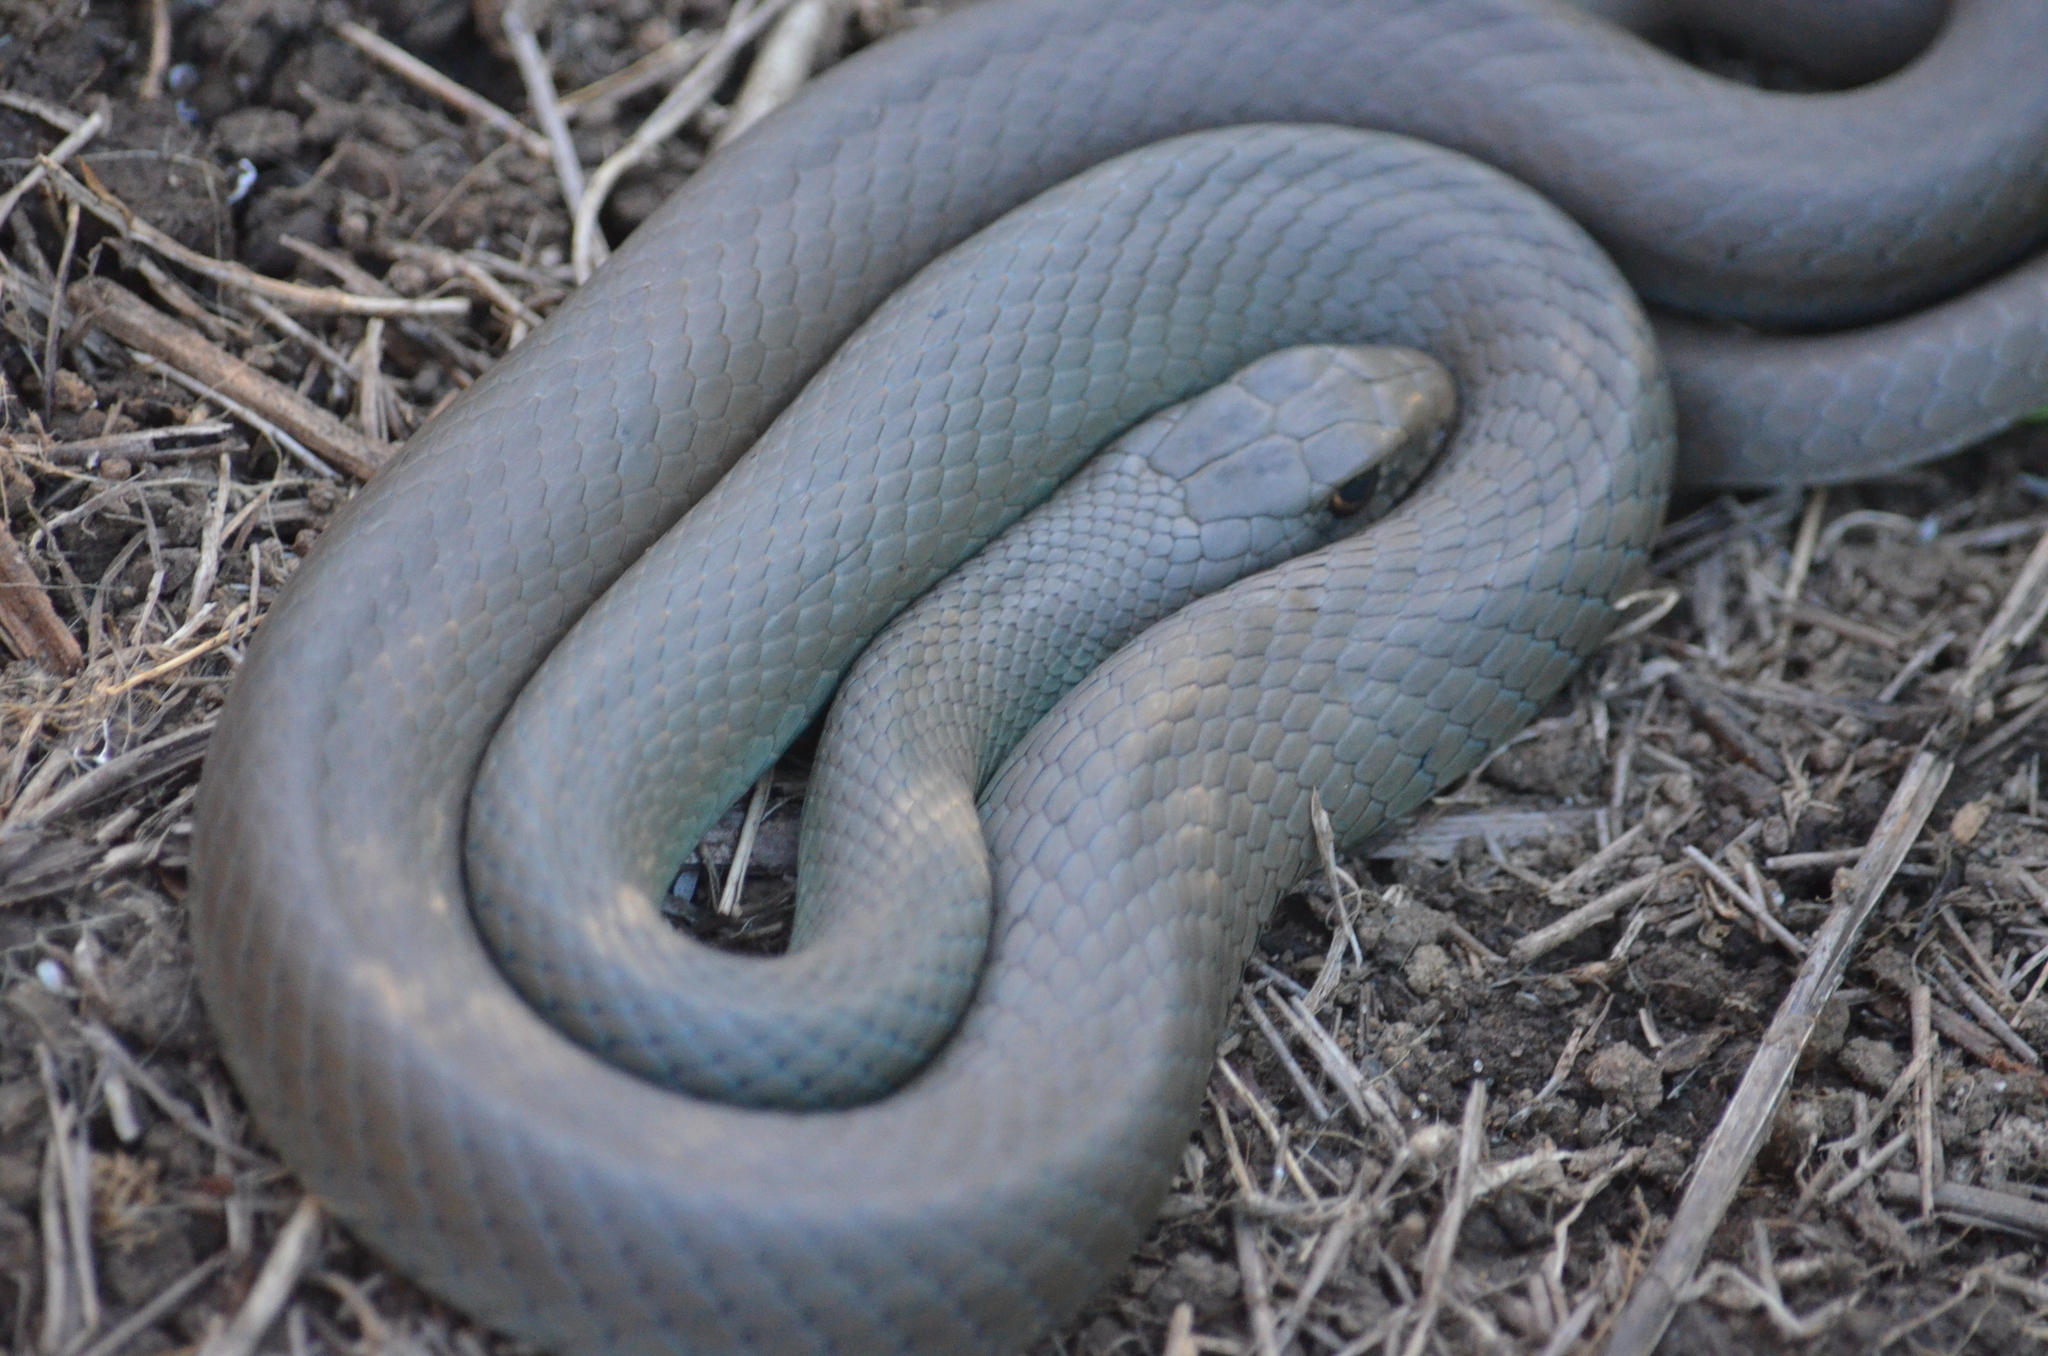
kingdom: Animalia
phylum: Chordata
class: Squamata
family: Colubridae
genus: Coluber
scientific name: Coluber constrictor
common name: Eastern racer
